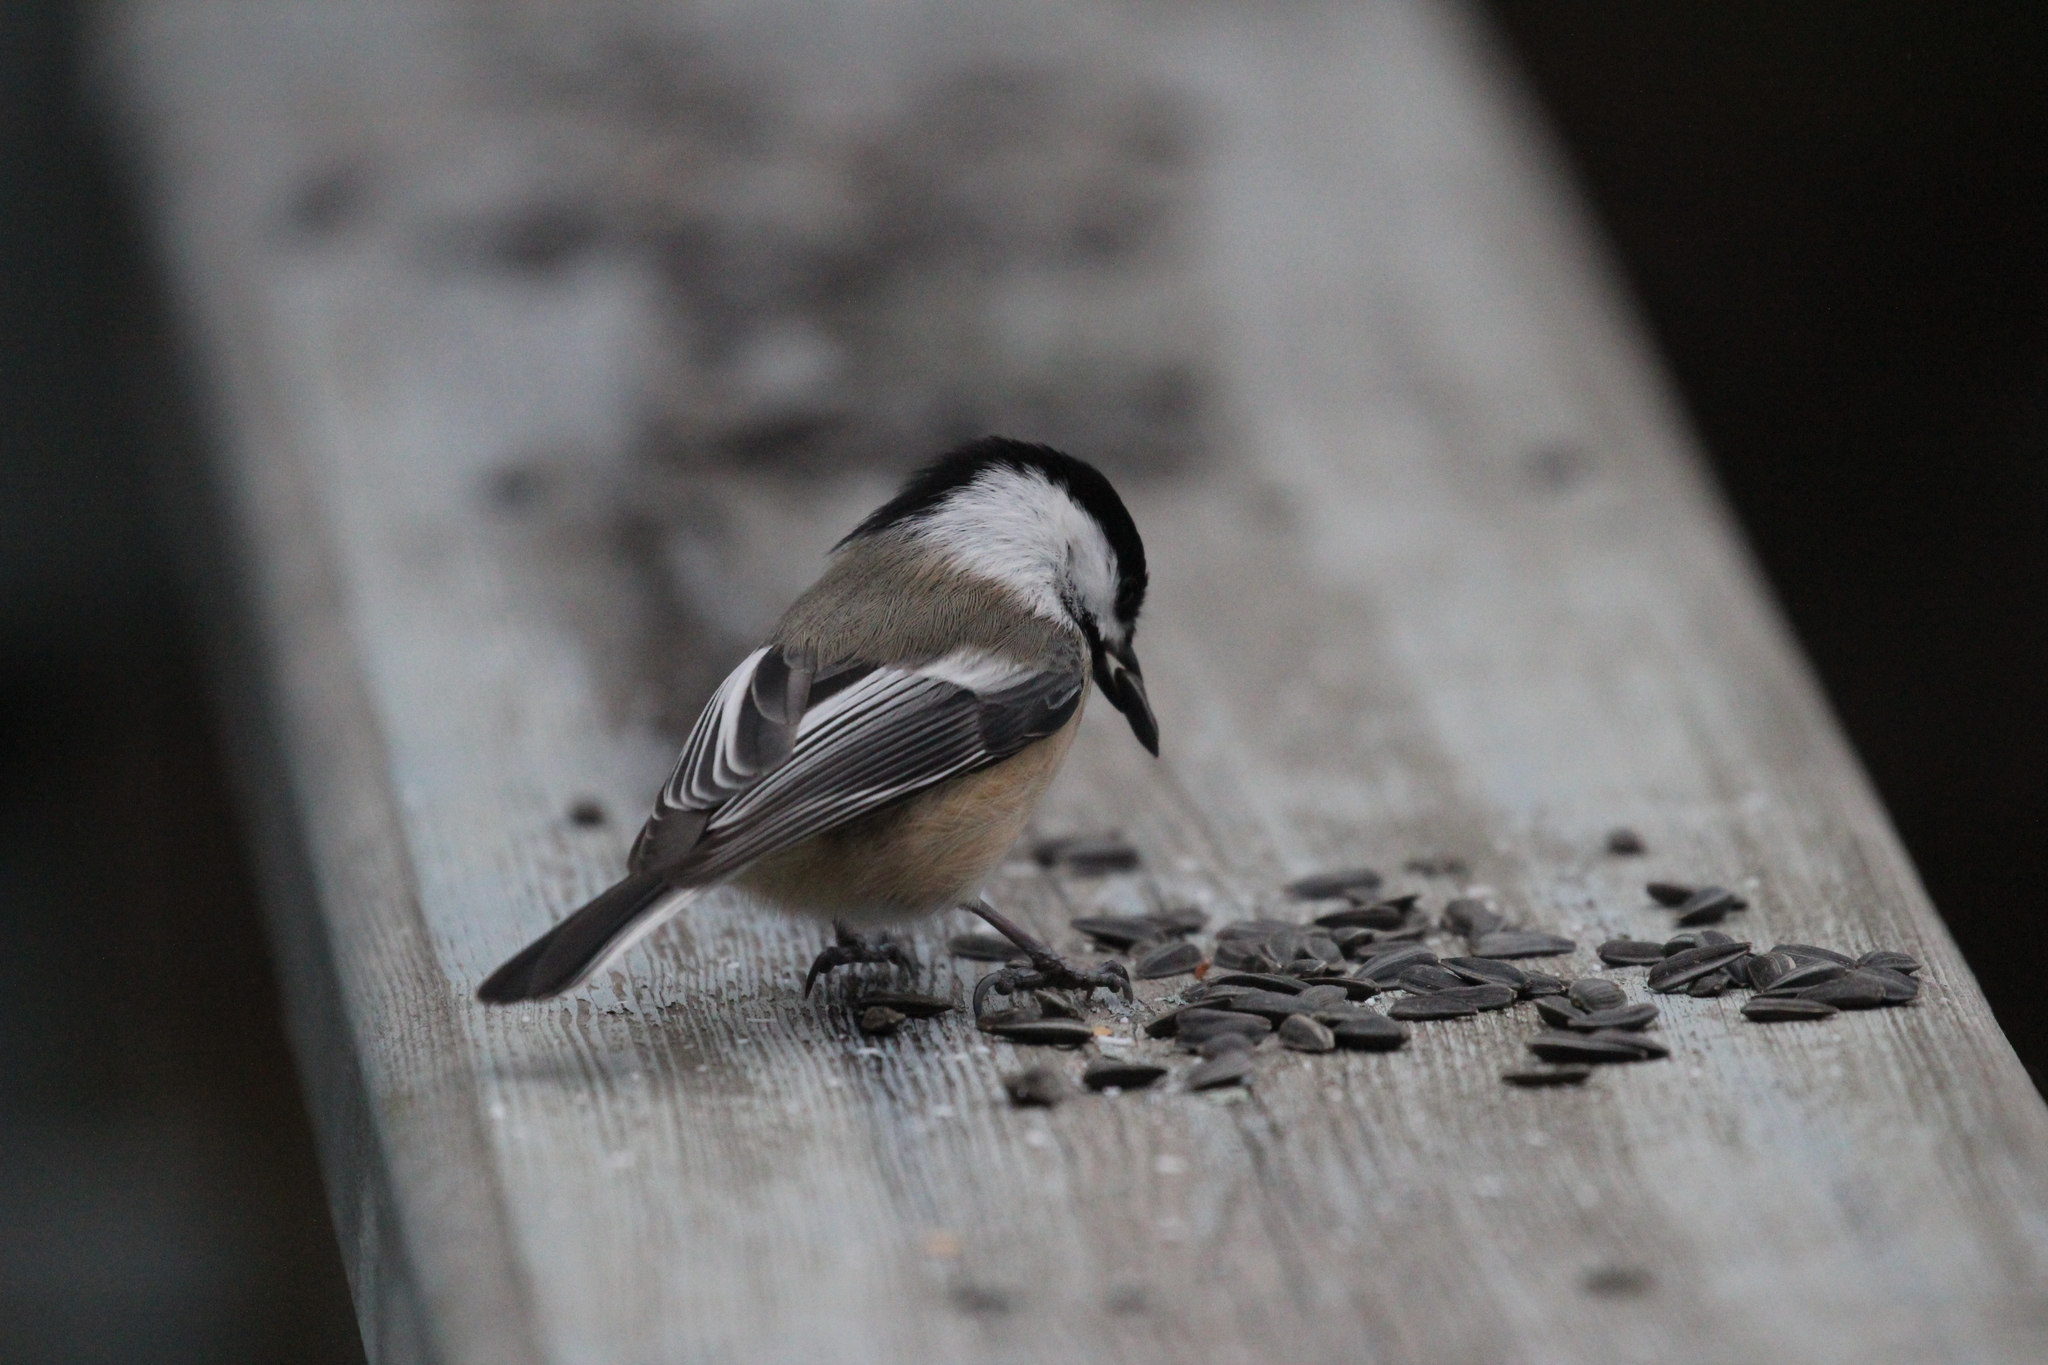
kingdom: Animalia
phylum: Chordata
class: Aves
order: Passeriformes
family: Paridae
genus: Poecile
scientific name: Poecile atricapillus
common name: Black-capped chickadee
